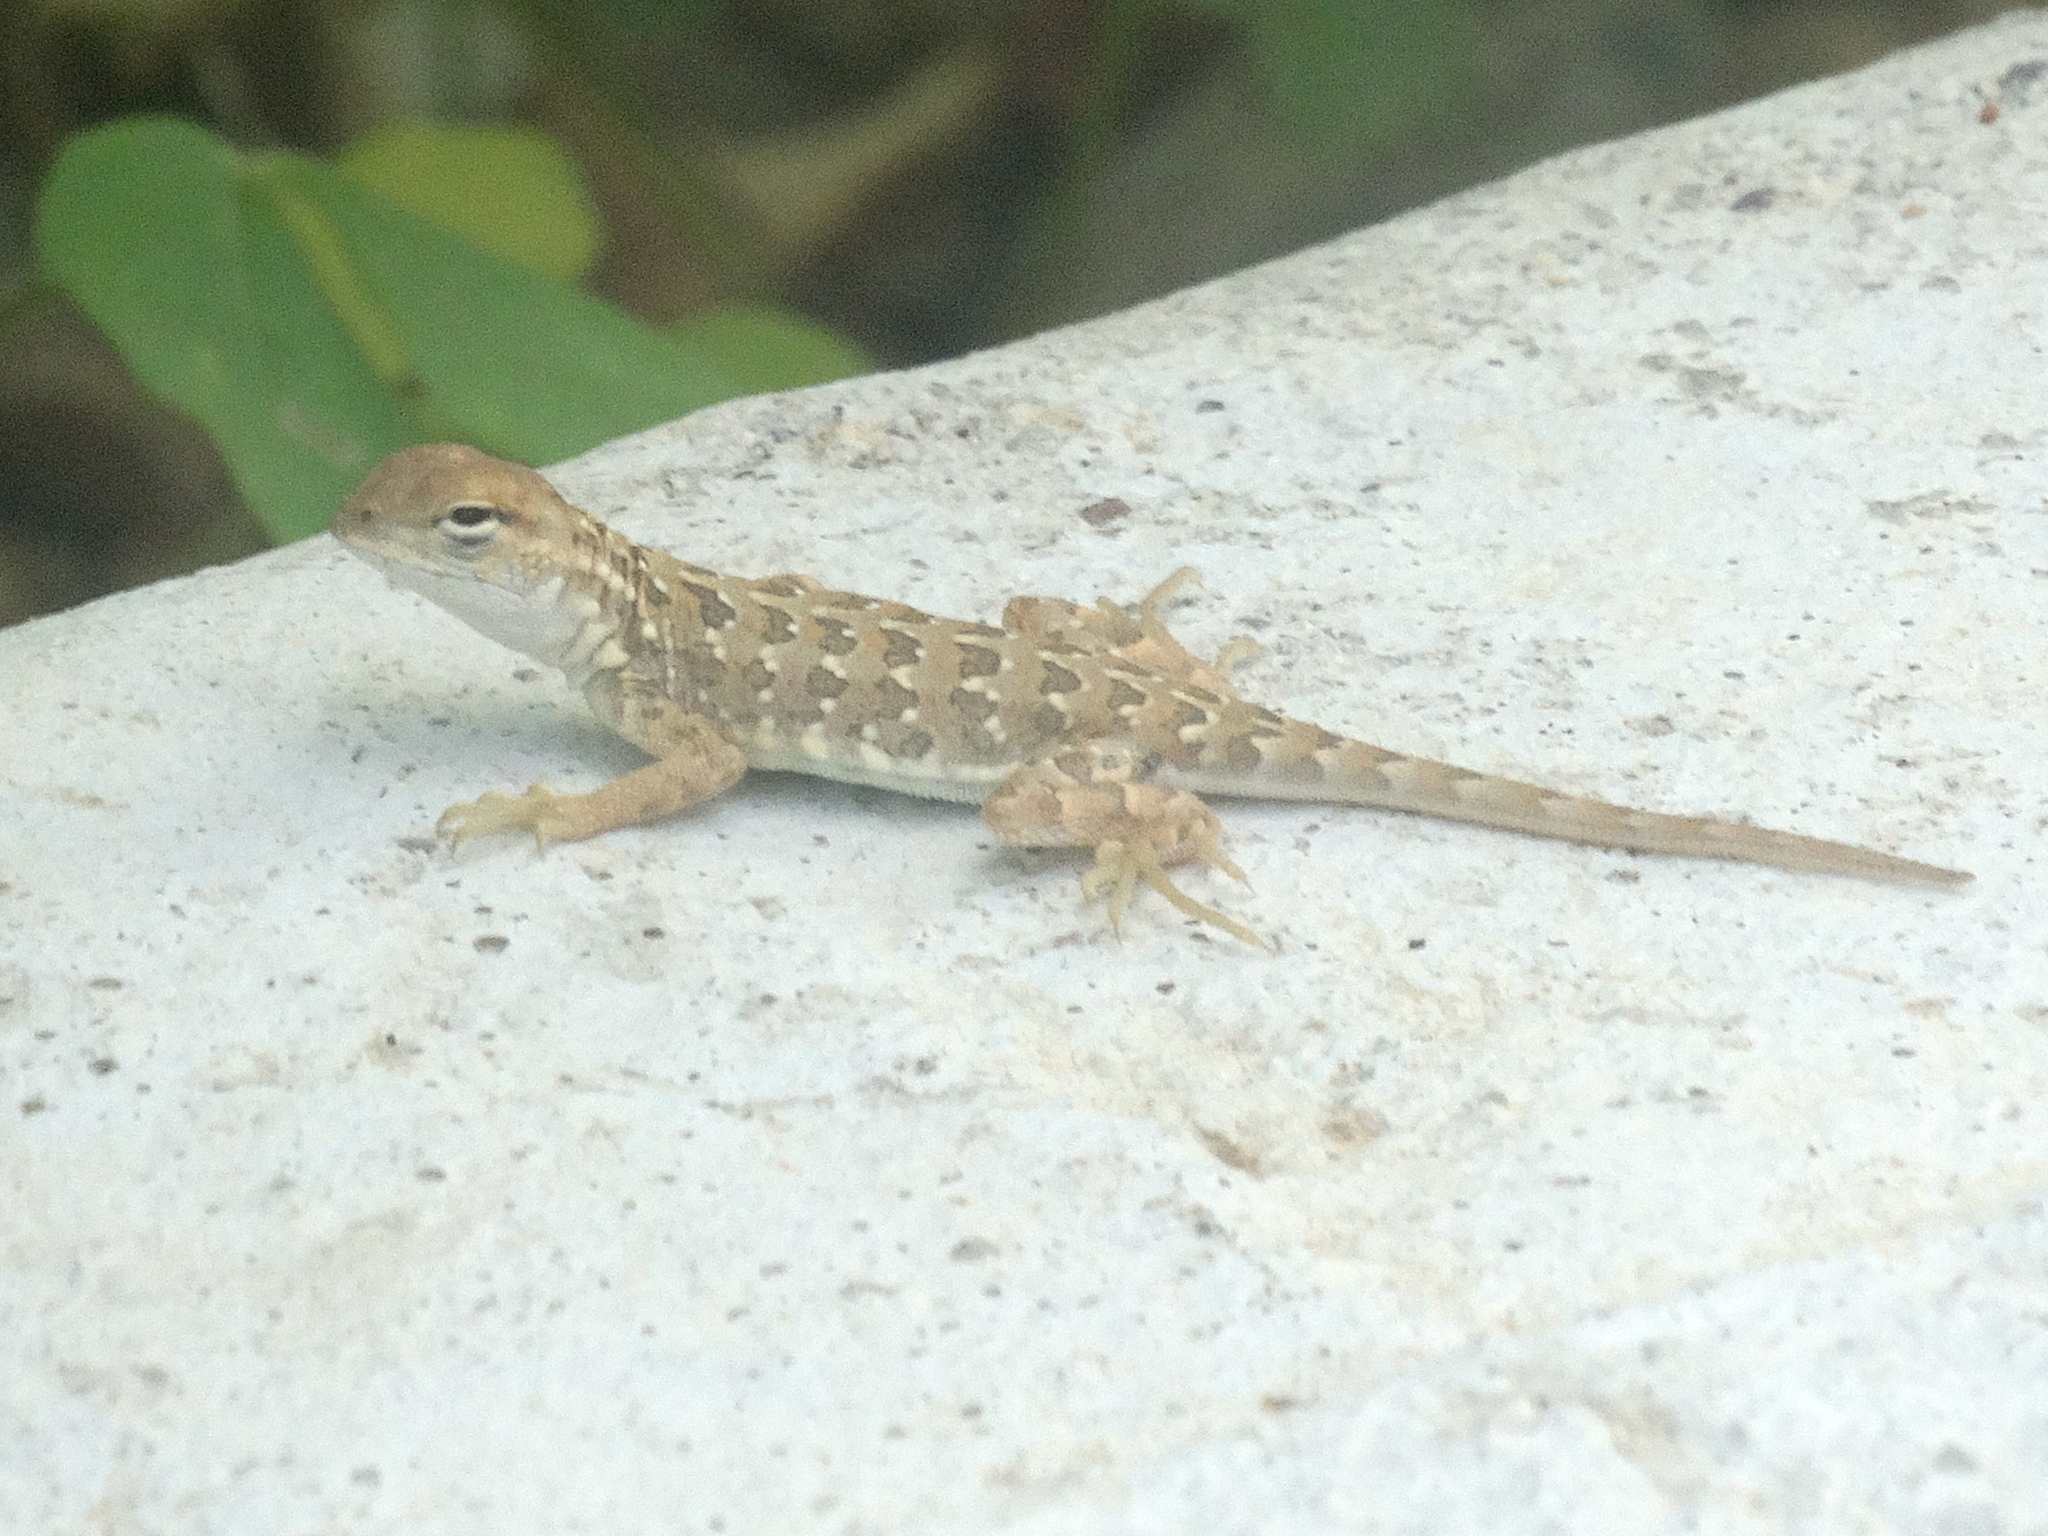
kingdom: Animalia
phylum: Chordata
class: Squamata
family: Phrynosomatidae
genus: Holbrookia
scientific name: Holbrookia elegans
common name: Elegant earless lizard
